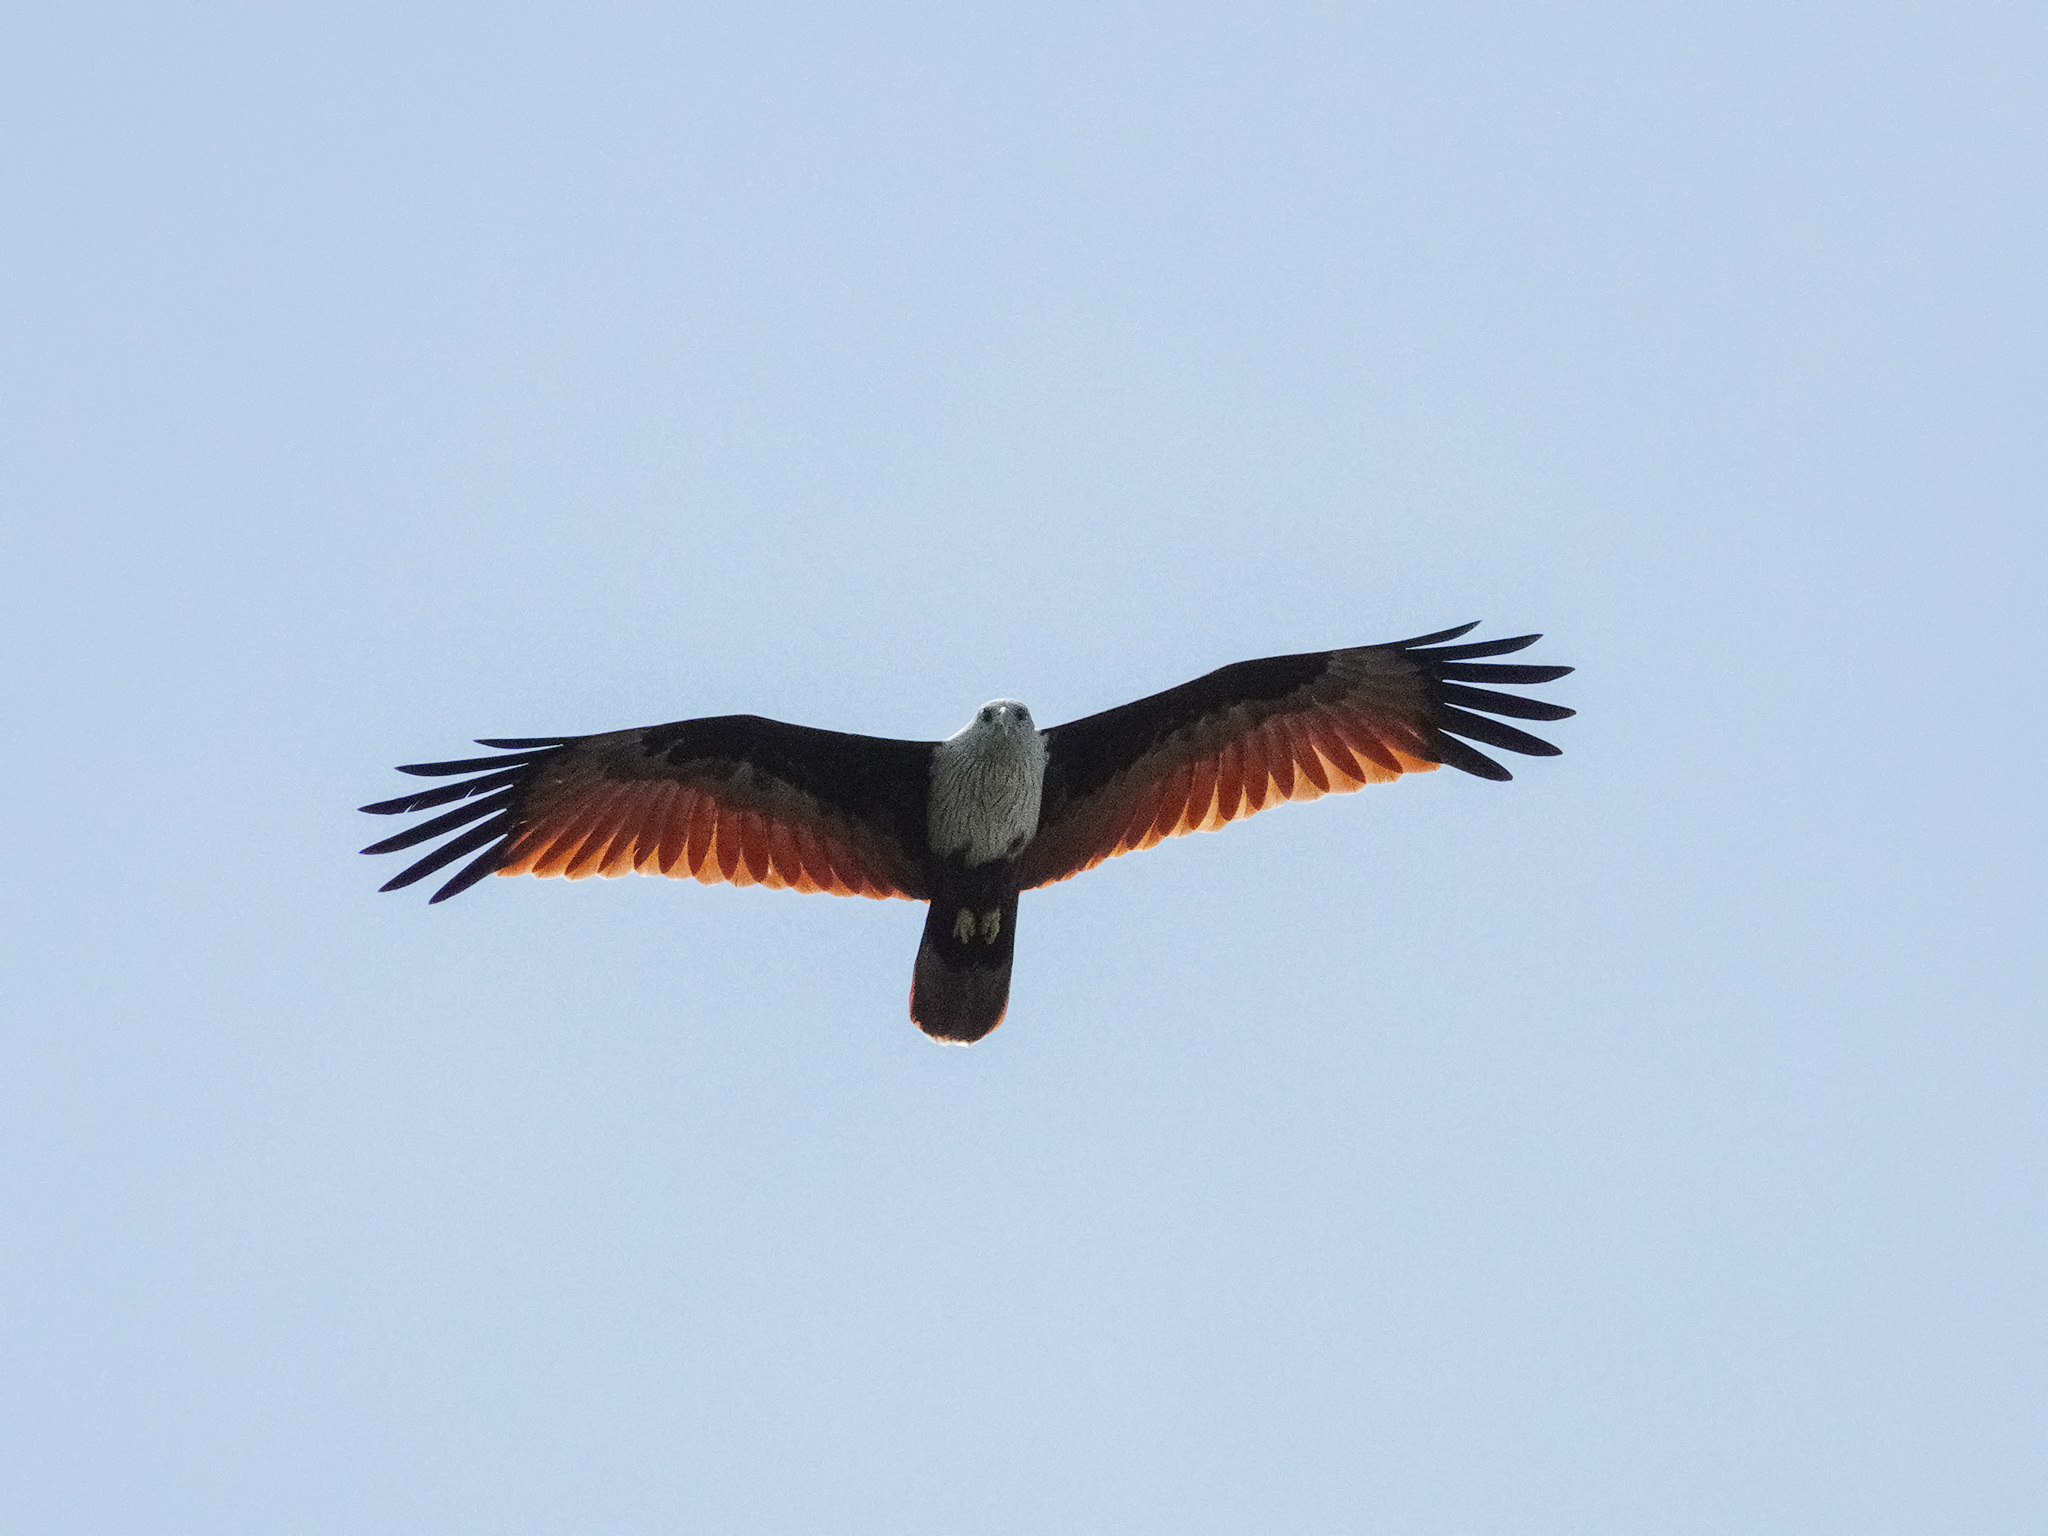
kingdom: Animalia
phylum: Chordata
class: Aves
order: Accipitriformes
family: Accipitridae
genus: Haliastur
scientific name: Haliastur indus
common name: Brahminy kite
